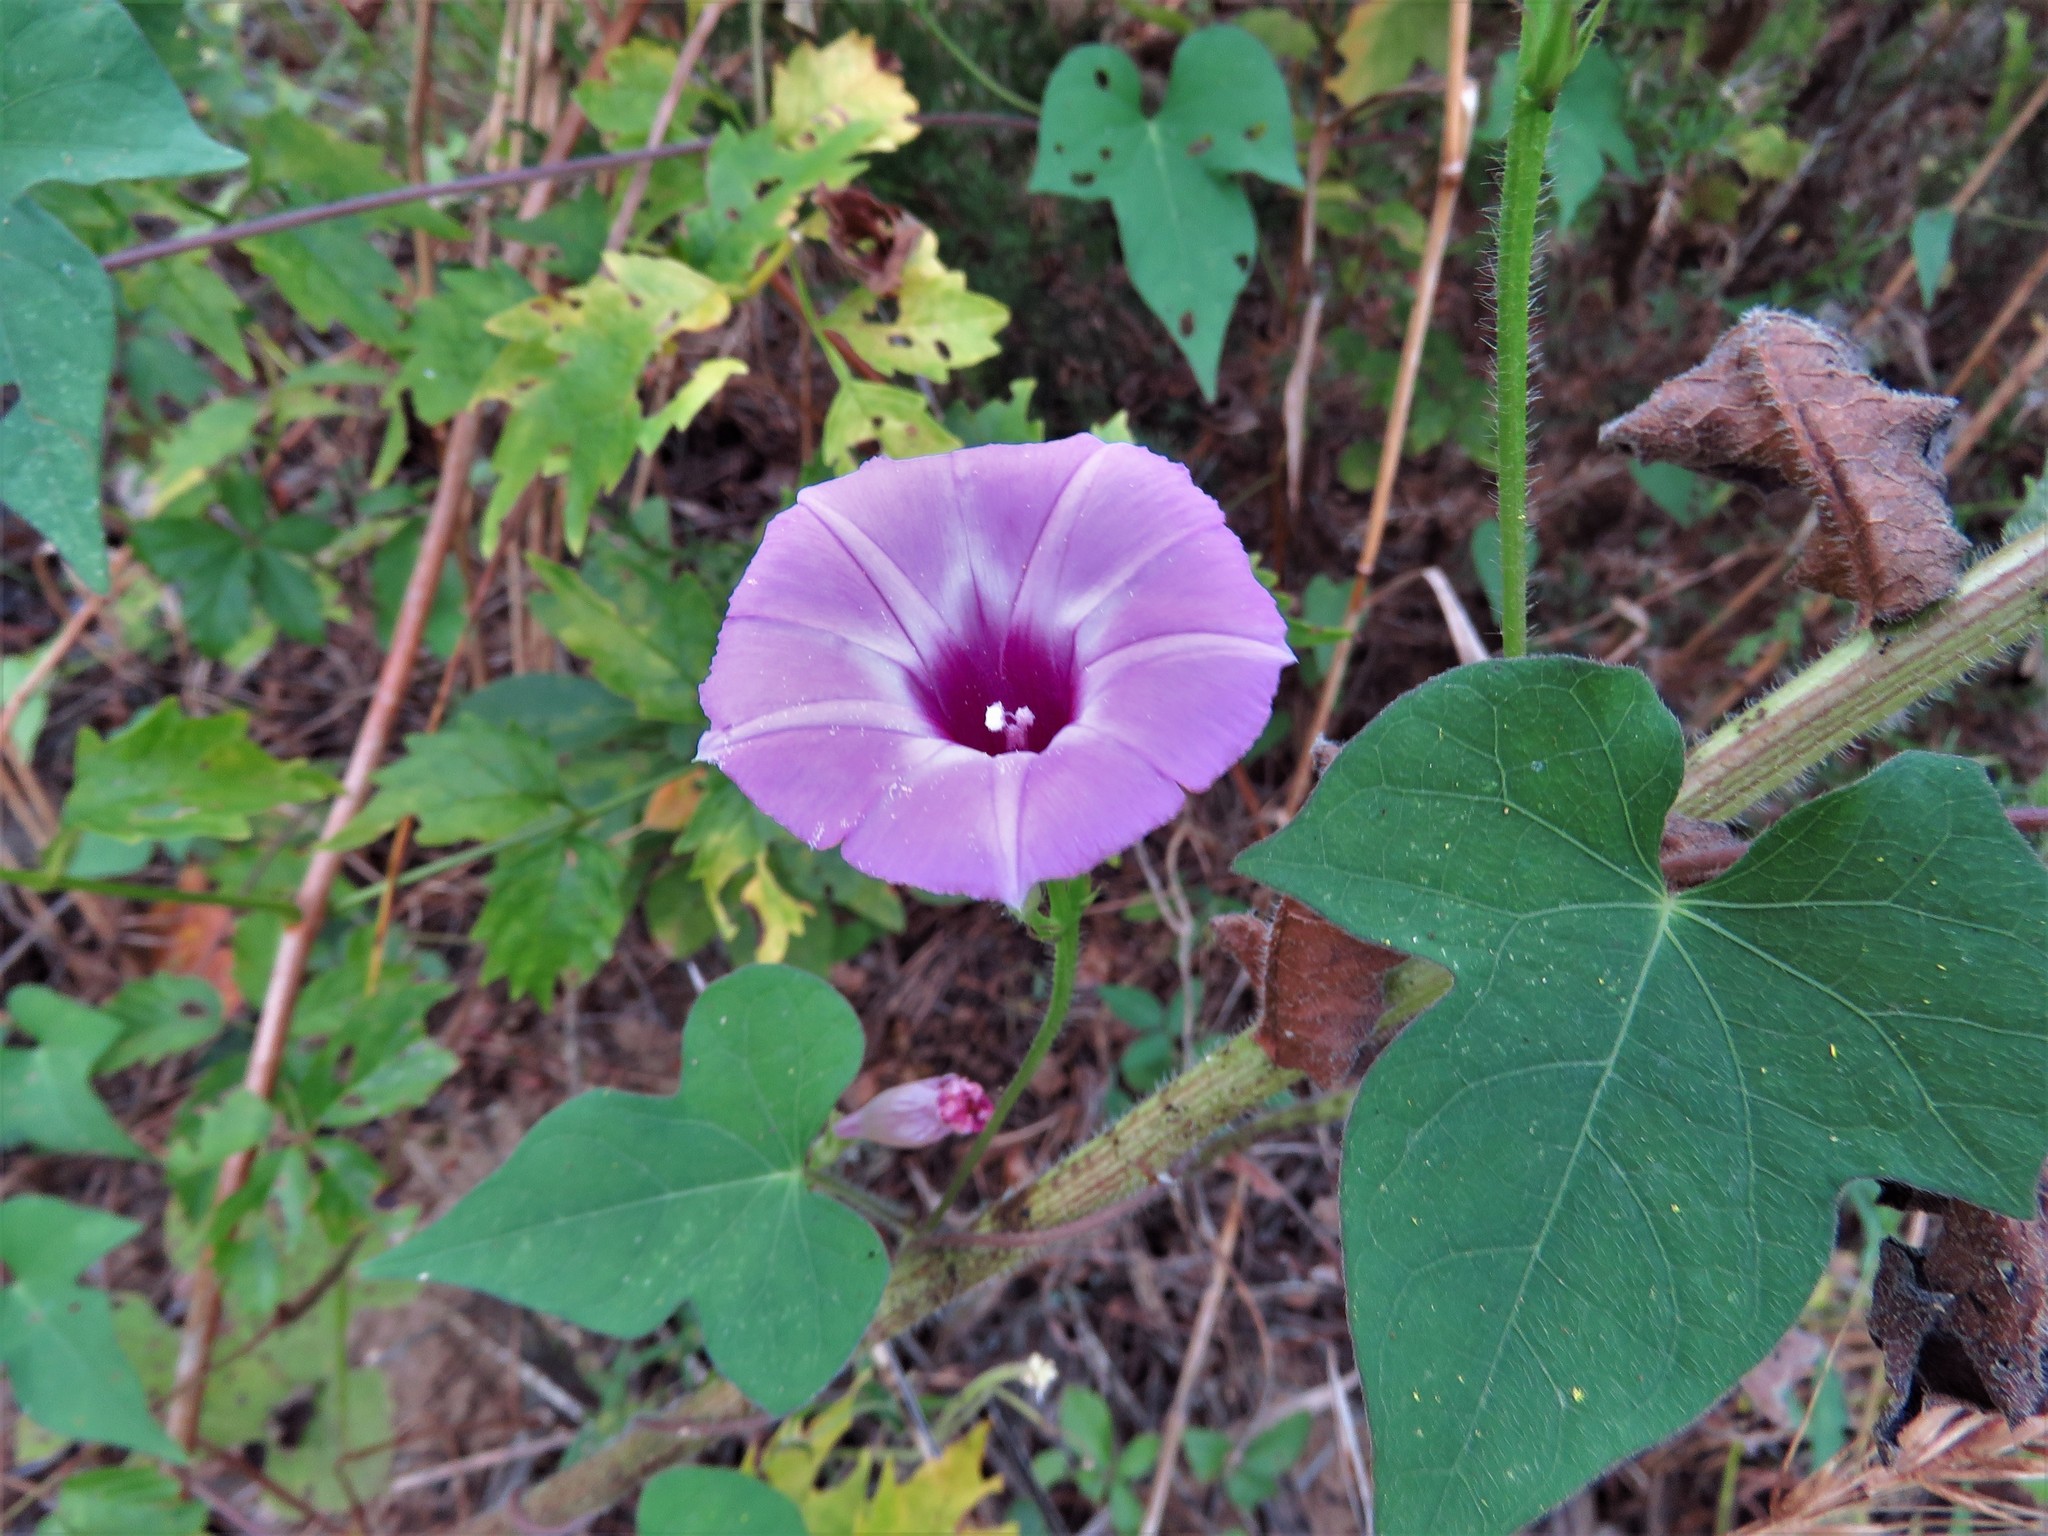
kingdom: Plantae
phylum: Tracheophyta
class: Magnoliopsida
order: Solanales
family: Convolvulaceae
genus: Ipomoea
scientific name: Ipomoea cordatotriloba
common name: Cotton morning glory
